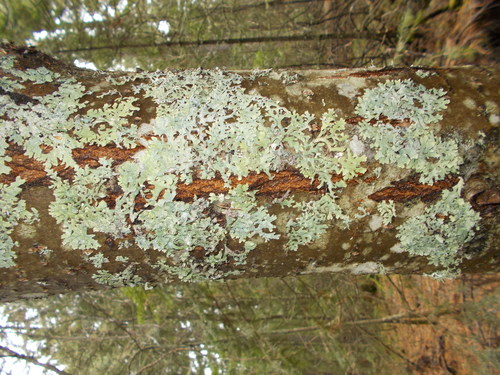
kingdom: Fungi
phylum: Ascomycota
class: Lecanoromycetes
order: Lecanorales
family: Parmeliaceae
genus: Parmelia
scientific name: Parmelia sulcata
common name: Netted shield lichen
